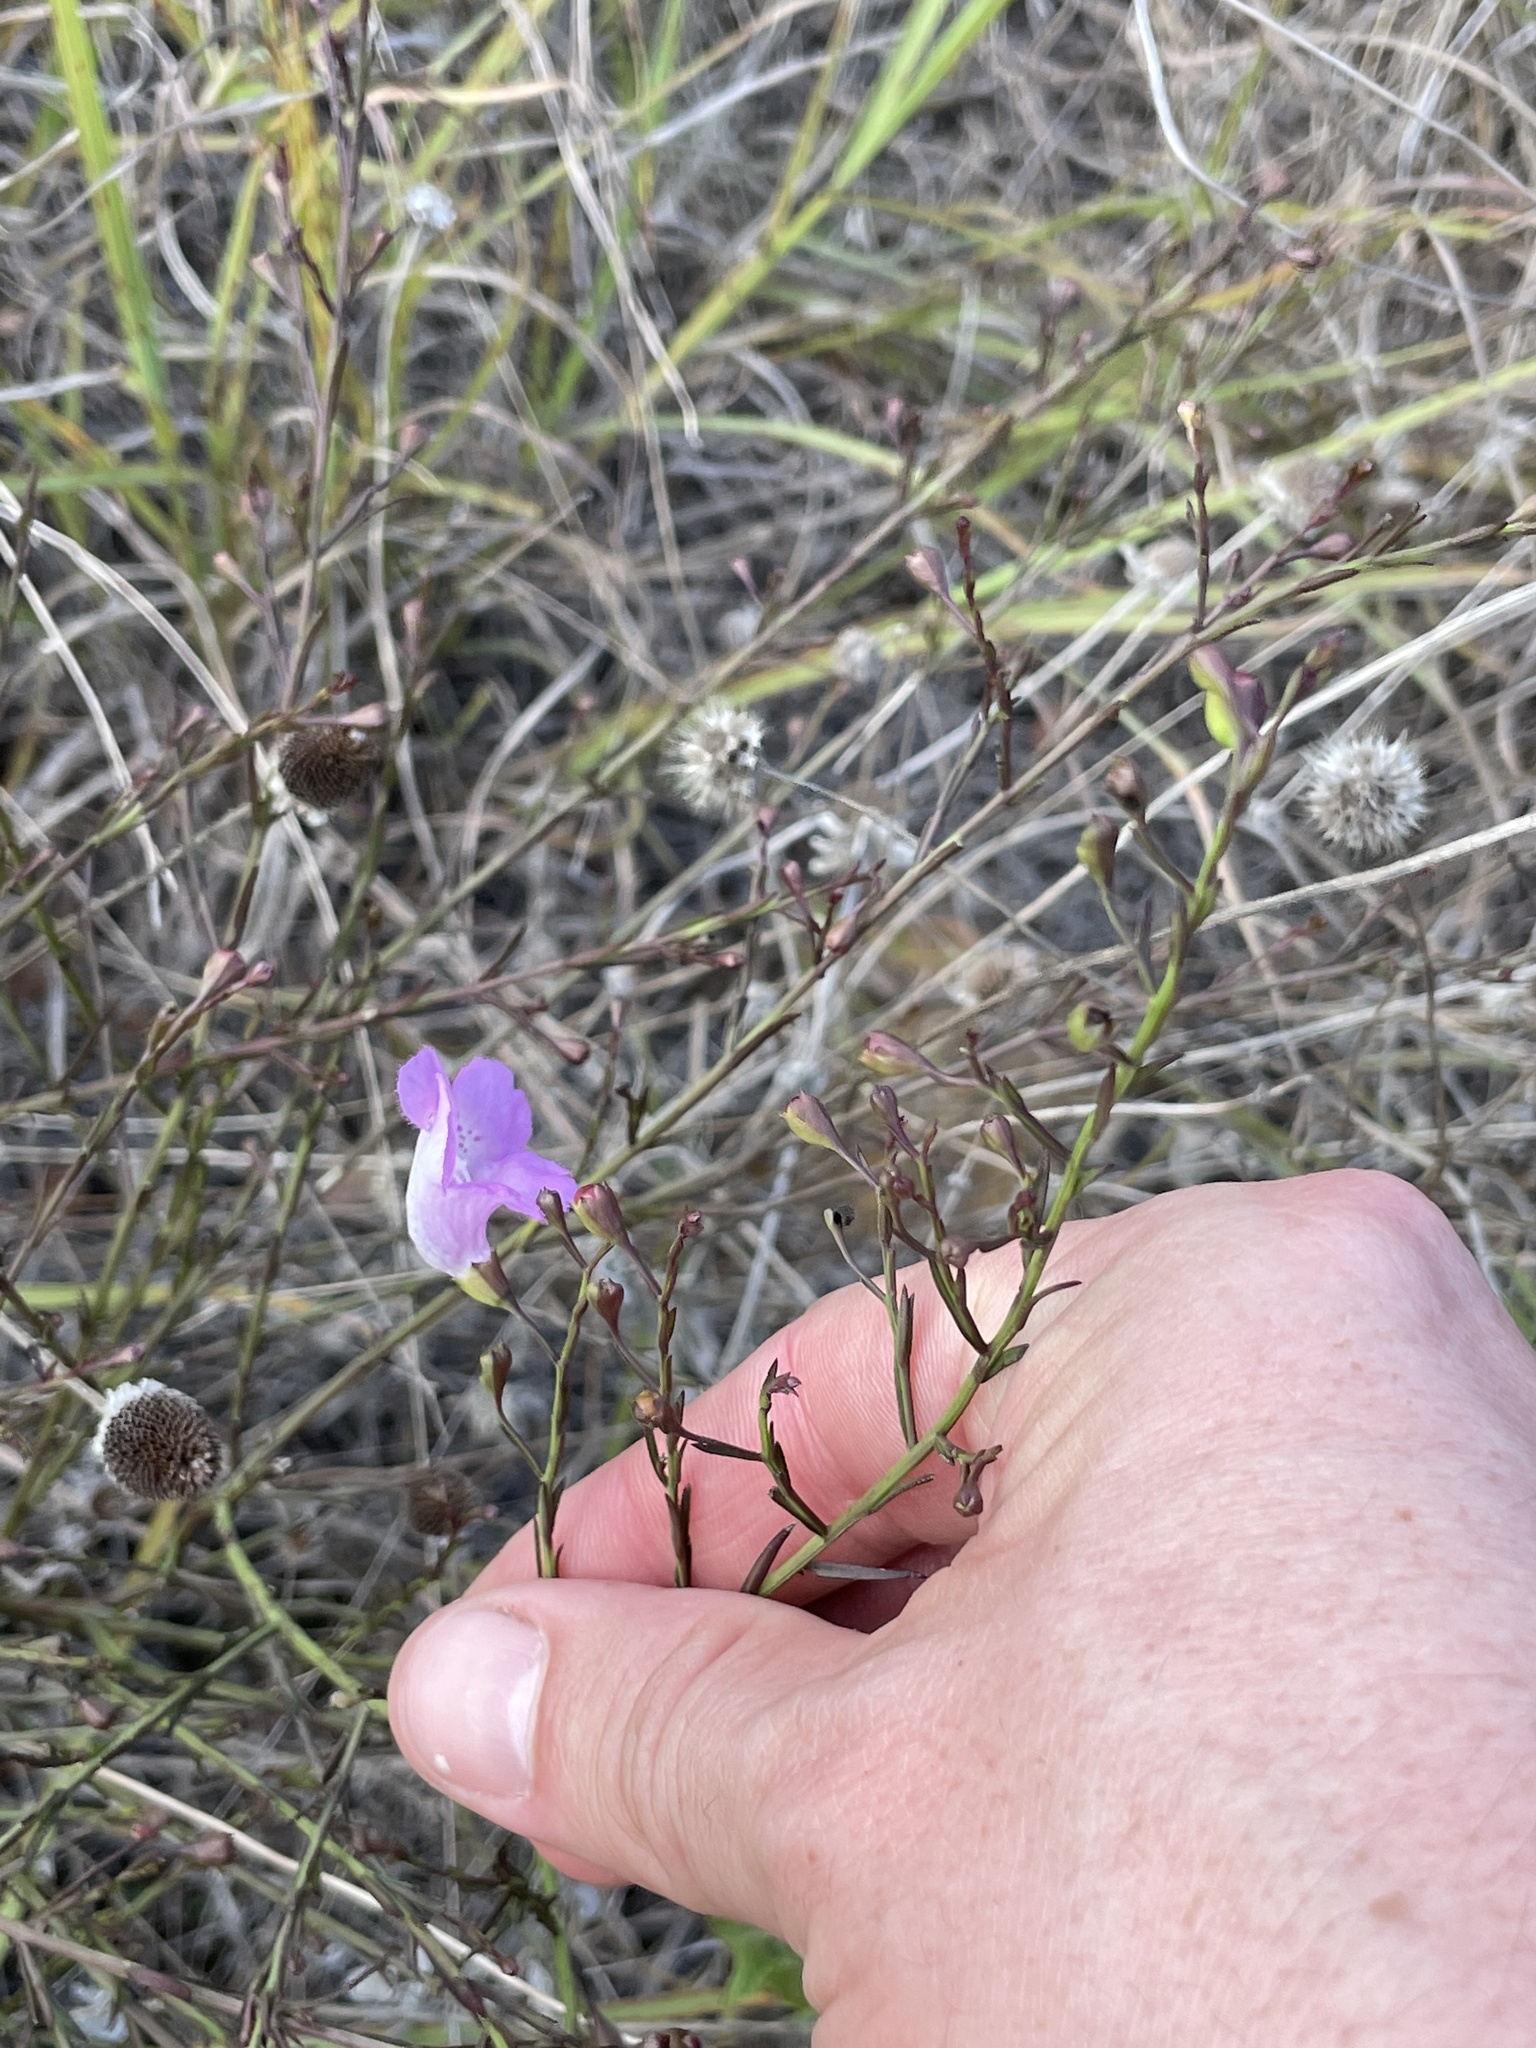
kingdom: Plantae
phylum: Tracheophyta
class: Magnoliopsida
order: Lamiales
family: Orobanchaceae
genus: Agalinis
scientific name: Agalinis strictifolia
